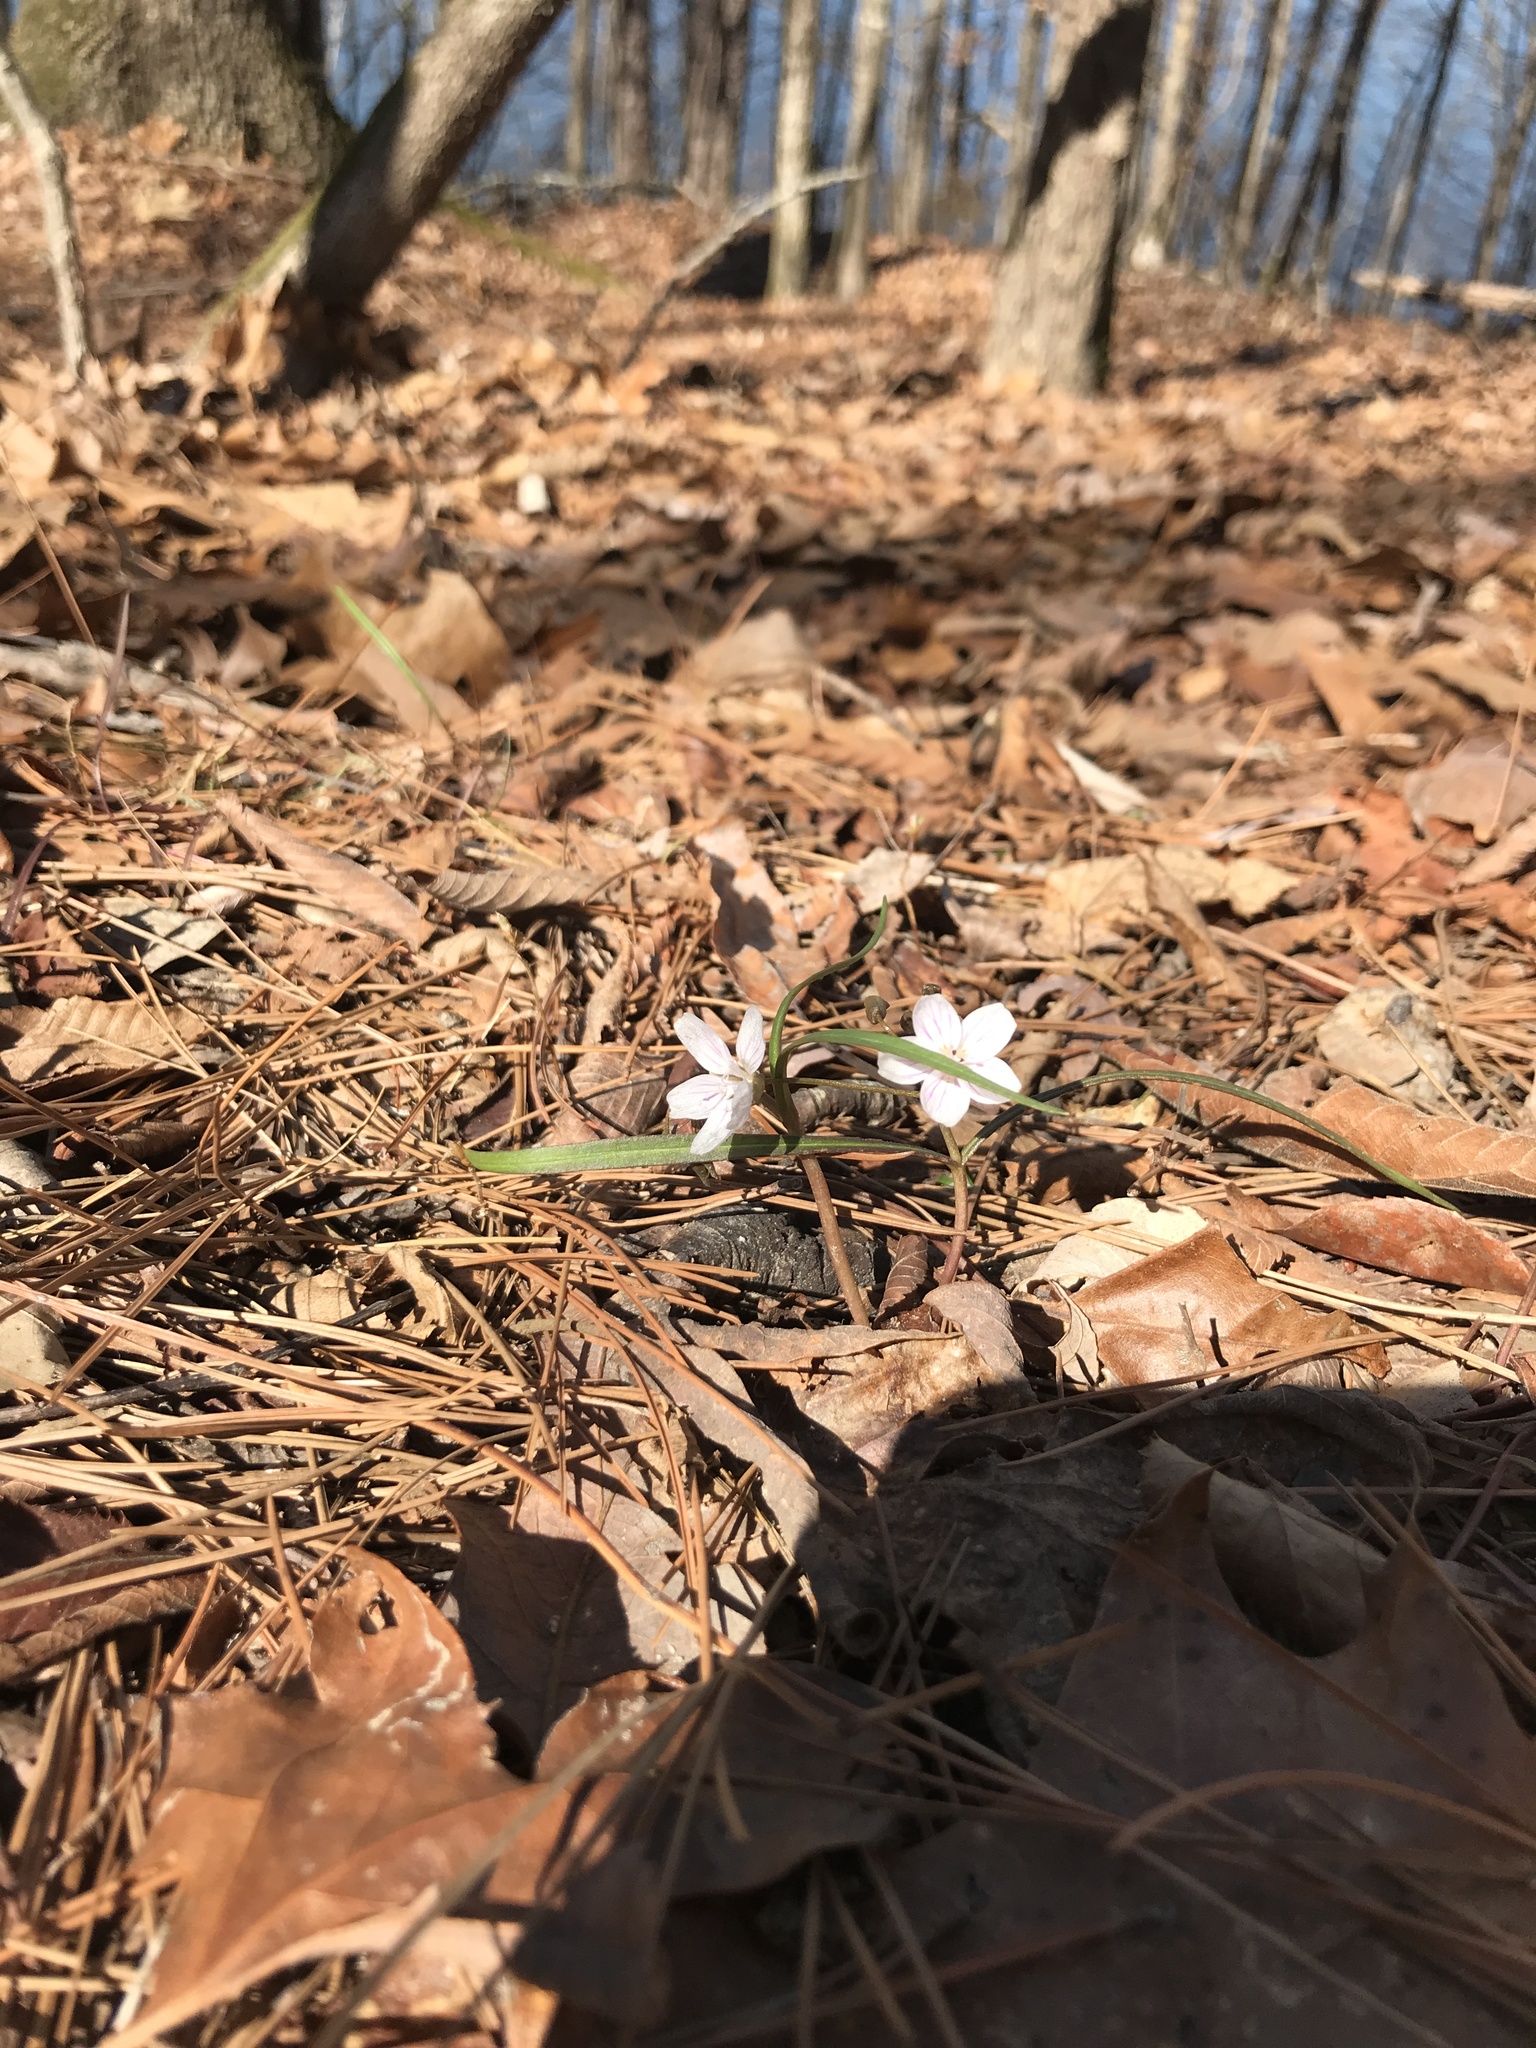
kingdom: Plantae
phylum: Tracheophyta
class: Magnoliopsida
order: Caryophyllales
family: Montiaceae
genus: Claytonia
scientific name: Claytonia virginica
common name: Virginia springbeauty
